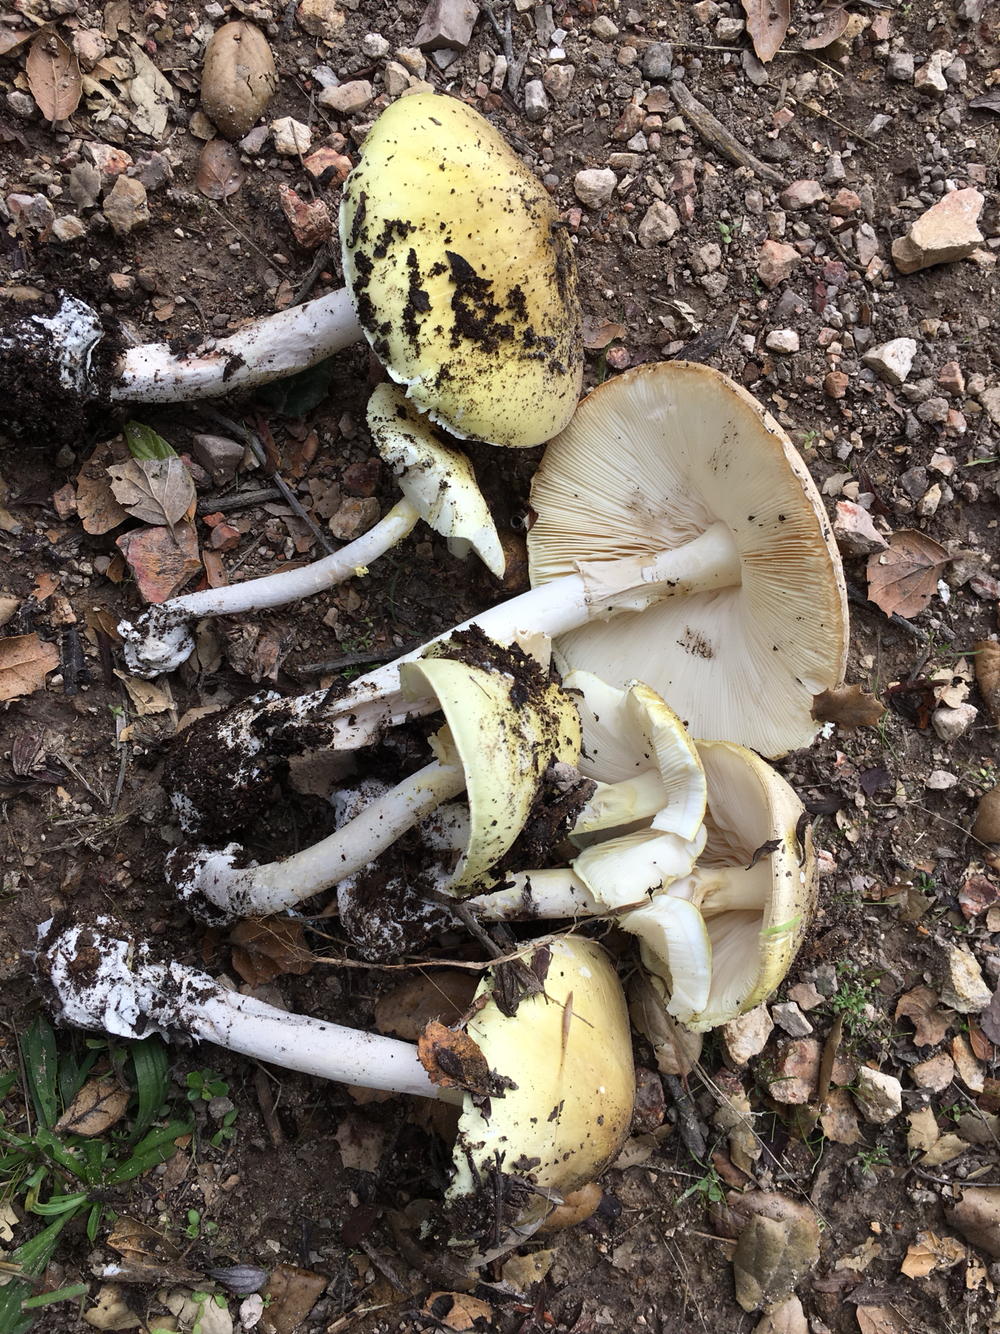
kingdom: Fungi
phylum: Basidiomycota
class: Agaricomycetes
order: Agaricales
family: Amanitaceae
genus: Amanita
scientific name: Amanita phalloides
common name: Death cap
